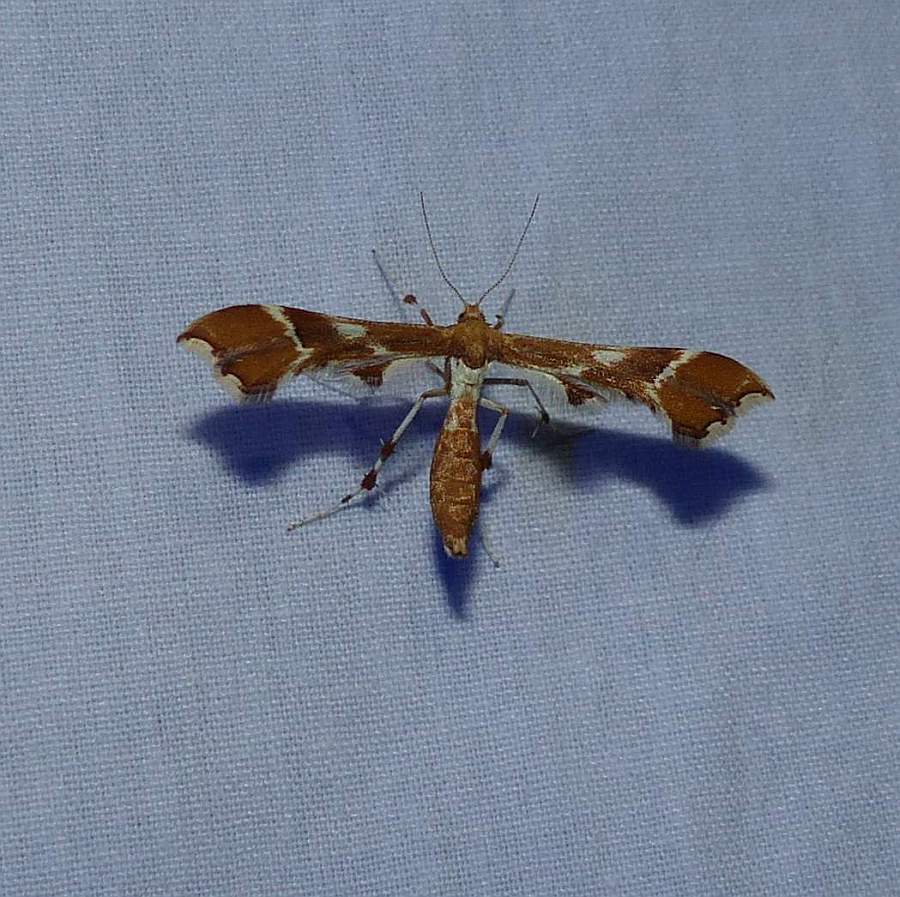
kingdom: Animalia
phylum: Arthropoda
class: Insecta
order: Lepidoptera
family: Pterophoridae
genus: Cnaemidophorus
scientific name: Cnaemidophorus rhododactyla
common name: Rose plume
